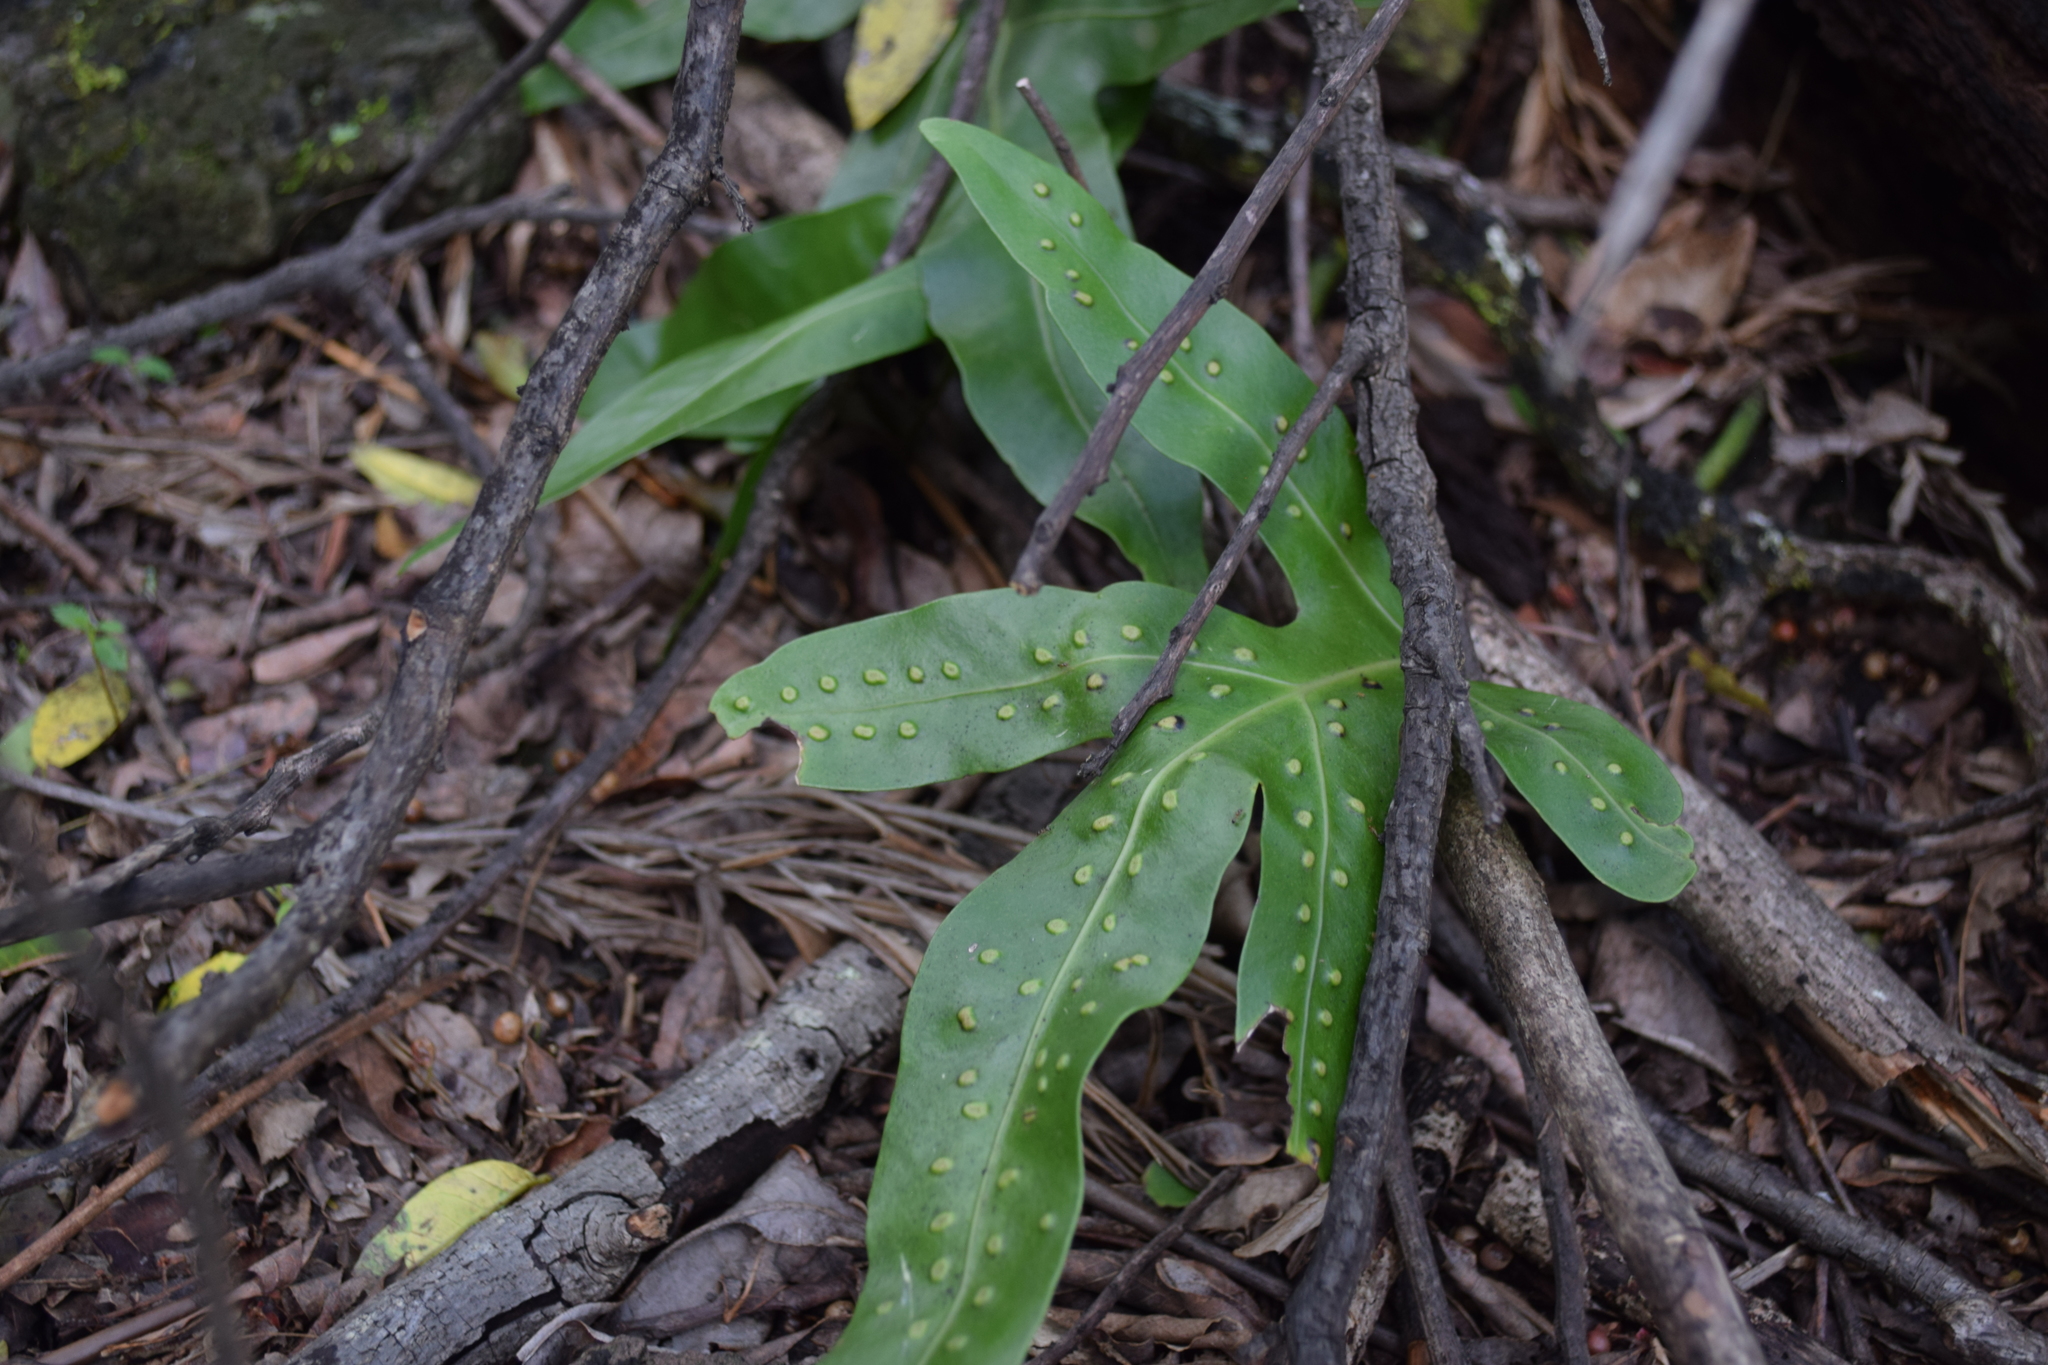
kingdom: Plantae
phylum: Tracheophyta
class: Polypodiopsida
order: Polypodiales
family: Polypodiaceae
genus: Microsorum
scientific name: Microsorum grossum
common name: Musk fern
